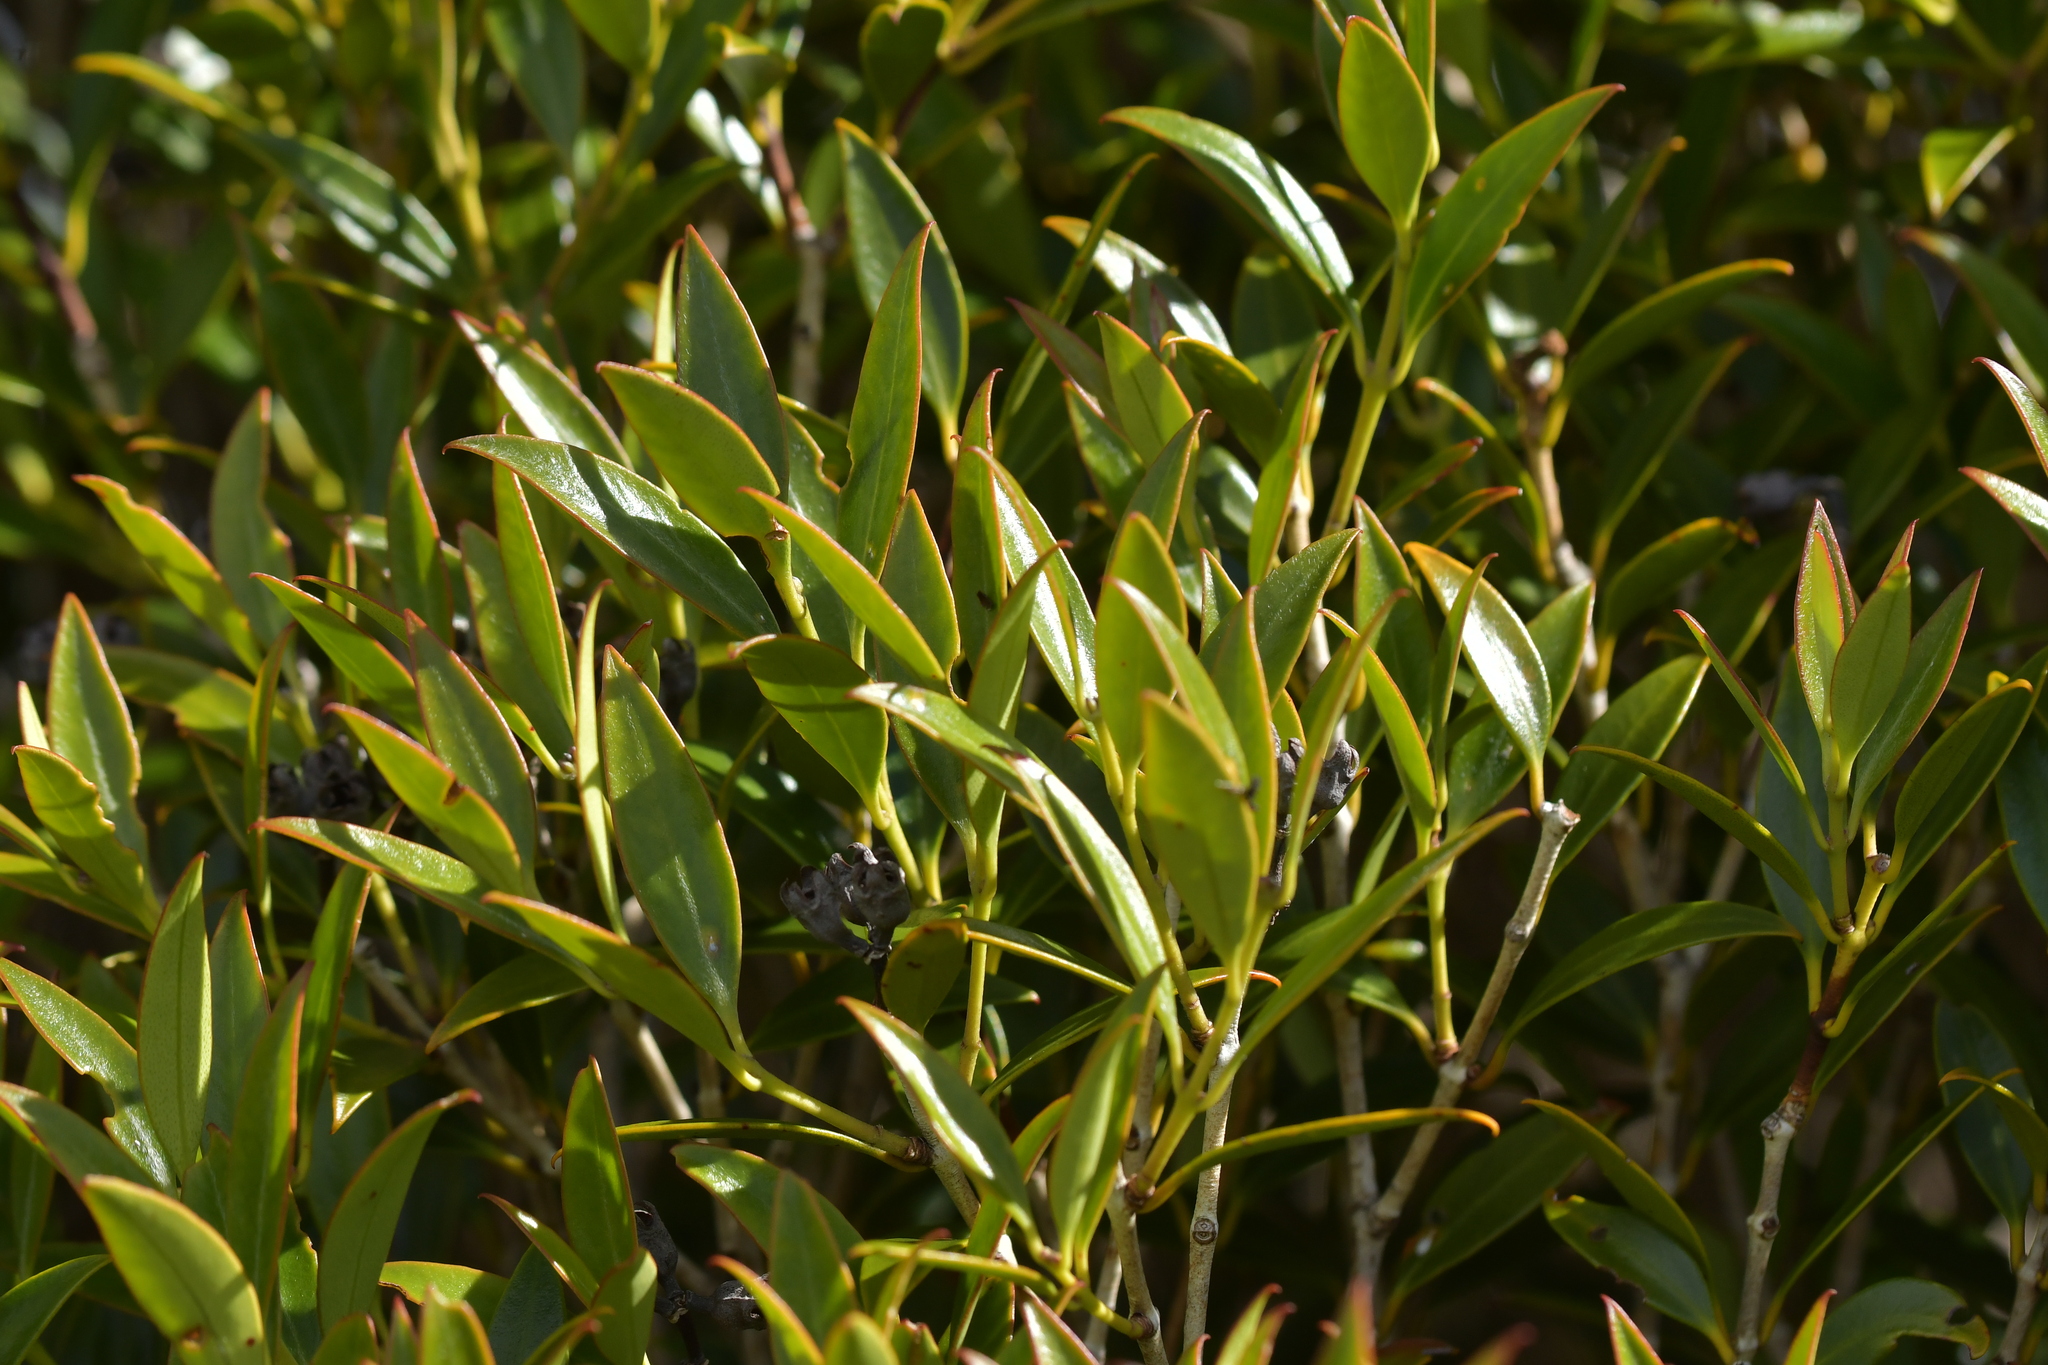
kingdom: Plantae
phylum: Tracheophyta
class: Magnoliopsida
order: Myrtales
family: Myrtaceae
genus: Metrosideros
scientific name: Metrosideros umbellata
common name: Southern rata
